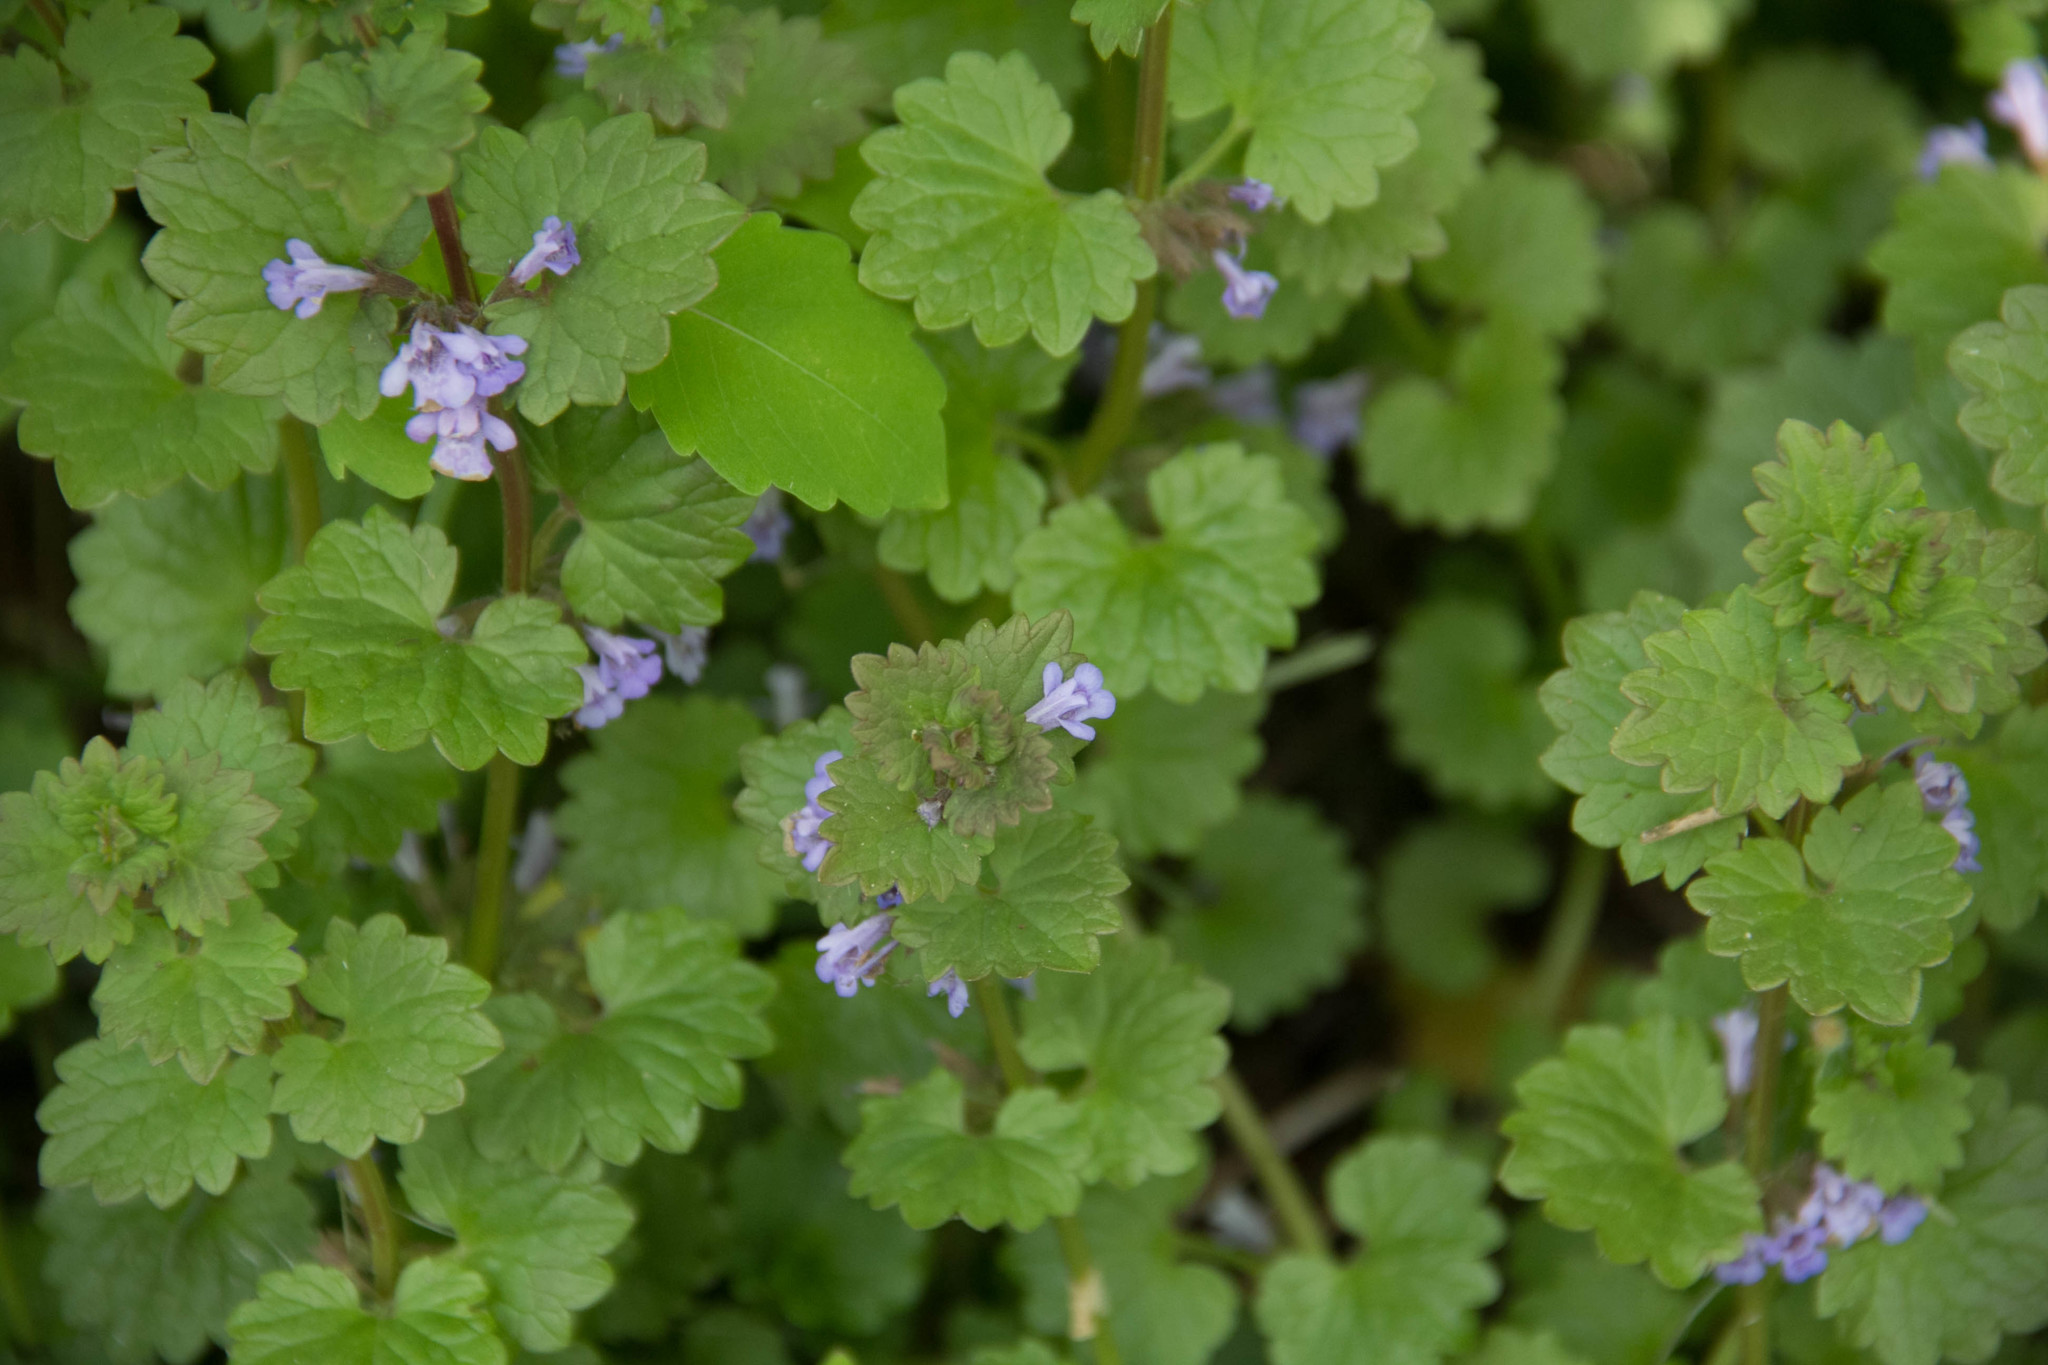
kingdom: Plantae
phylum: Tracheophyta
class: Magnoliopsida
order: Lamiales
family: Lamiaceae
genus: Glechoma
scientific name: Glechoma hederacea
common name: Ground ivy
